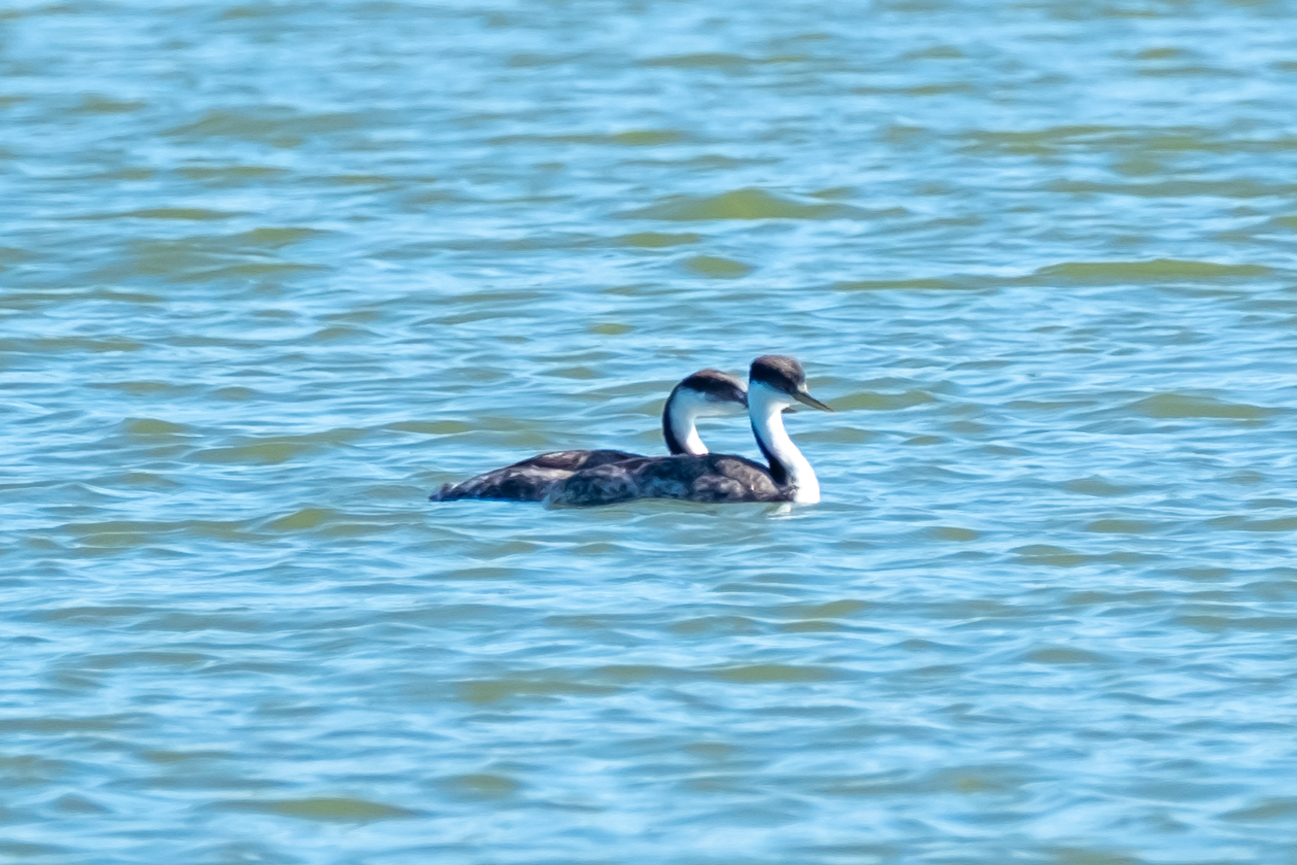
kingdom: Animalia
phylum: Chordata
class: Aves
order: Podicipediformes
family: Podicipedidae
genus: Aechmophorus
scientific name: Aechmophorus occidentalis
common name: Western grebe
